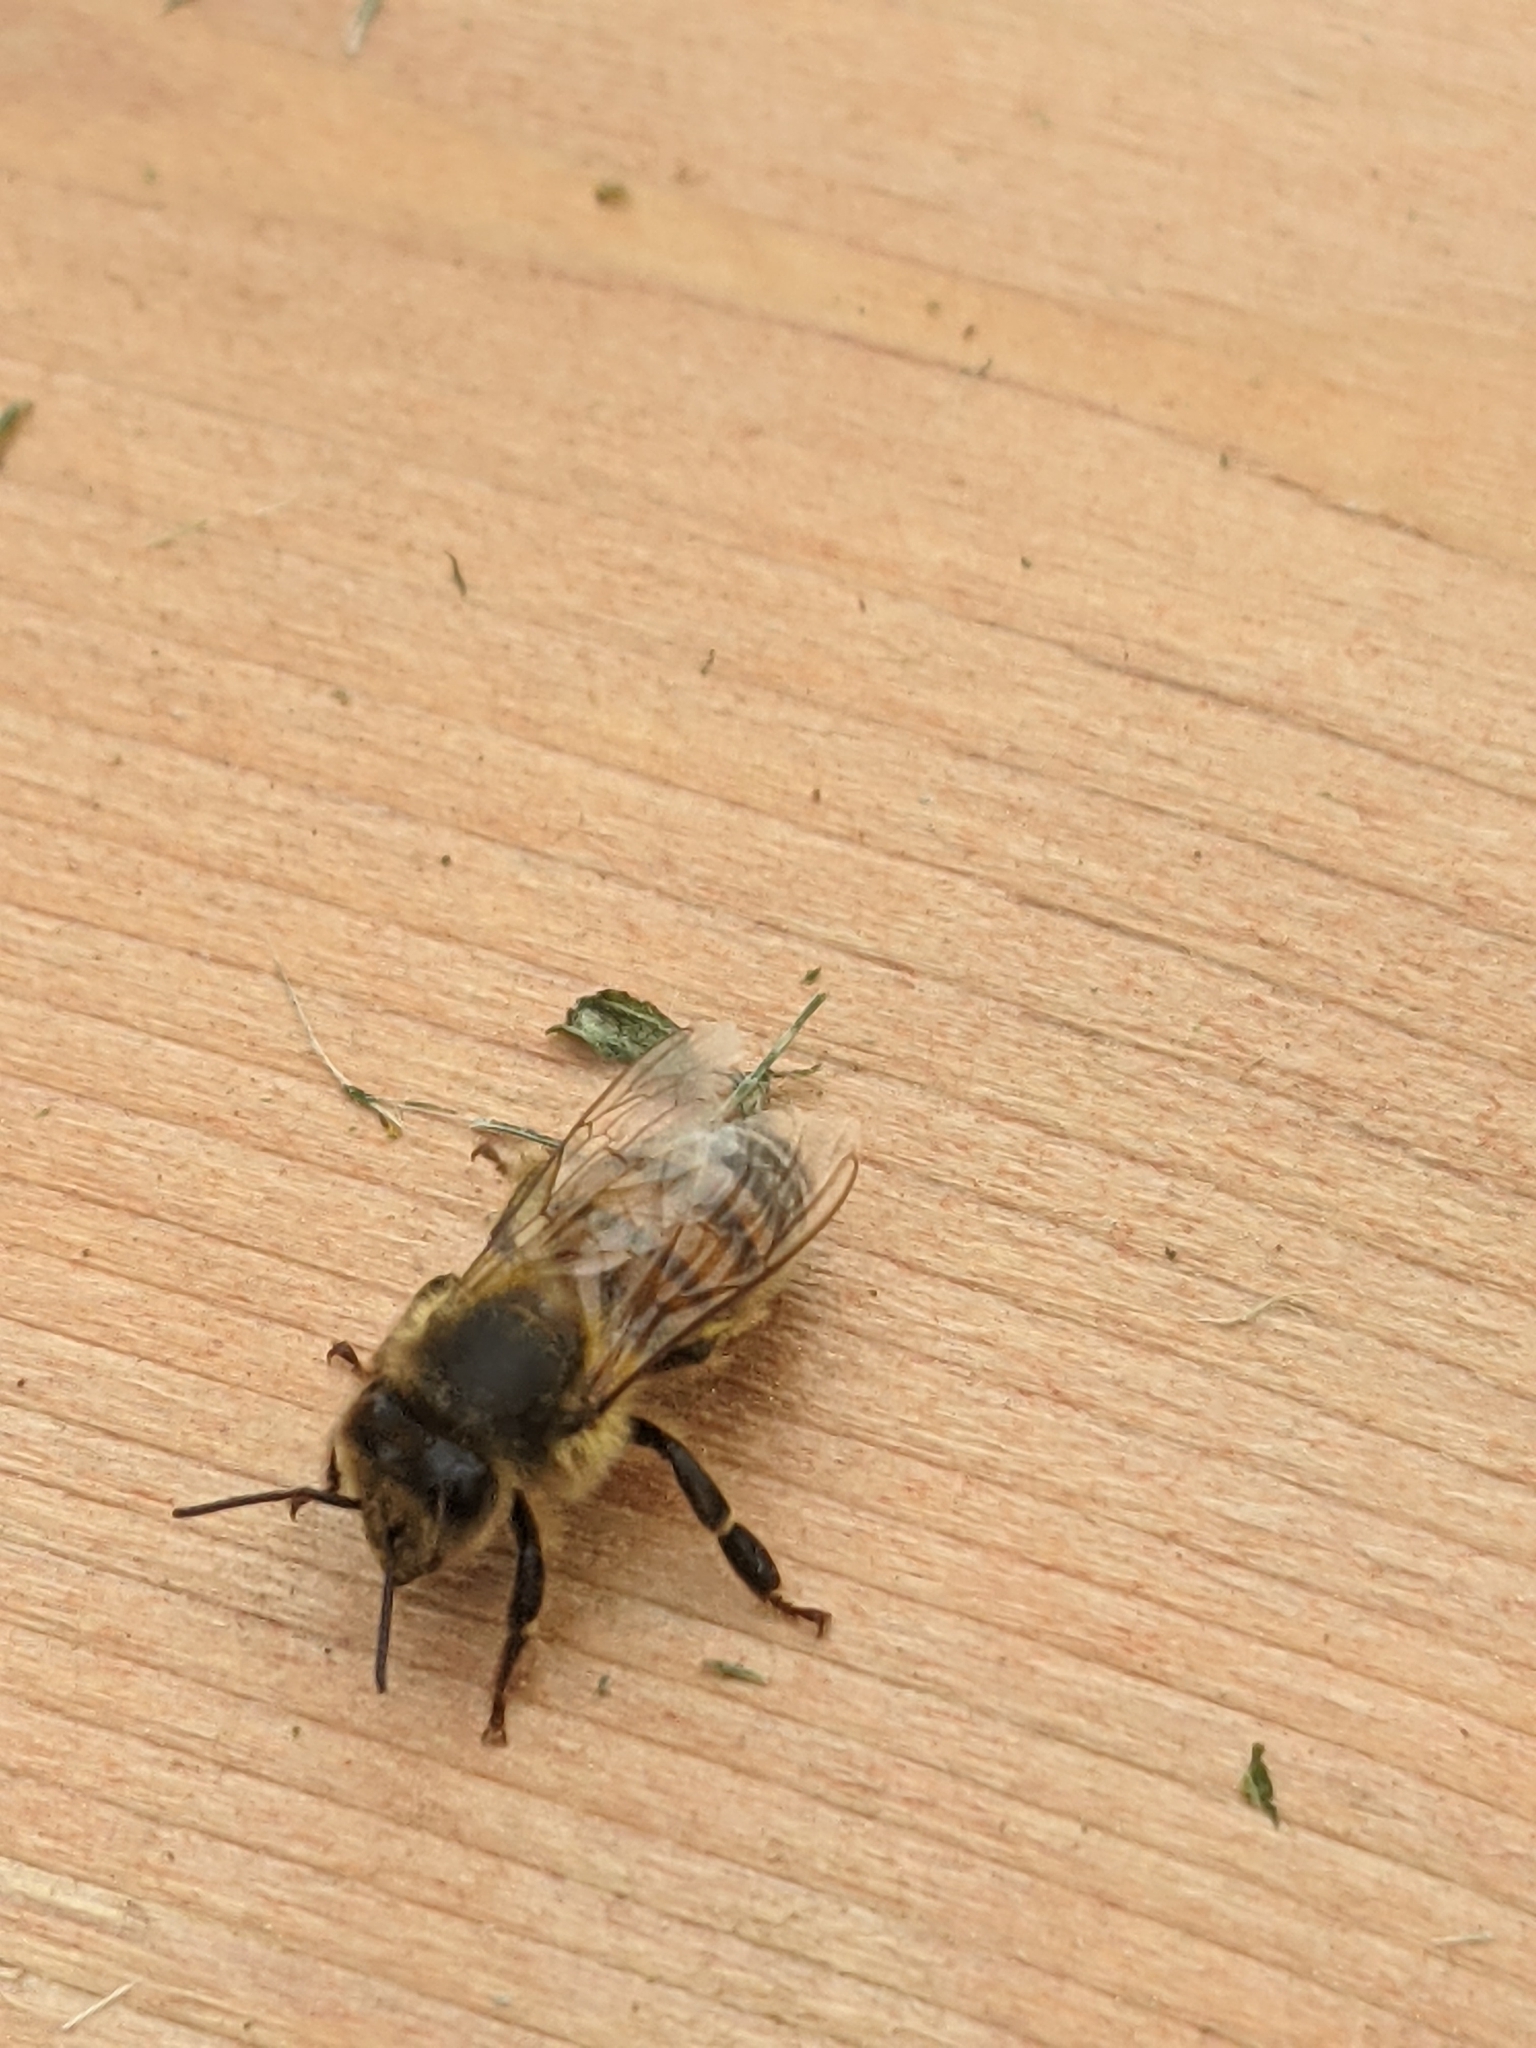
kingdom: Animalia
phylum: Arthropoda
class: Insecta
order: Hymenoptera
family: Apidae
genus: Apis
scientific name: Apis mellifera
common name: Honey bee
